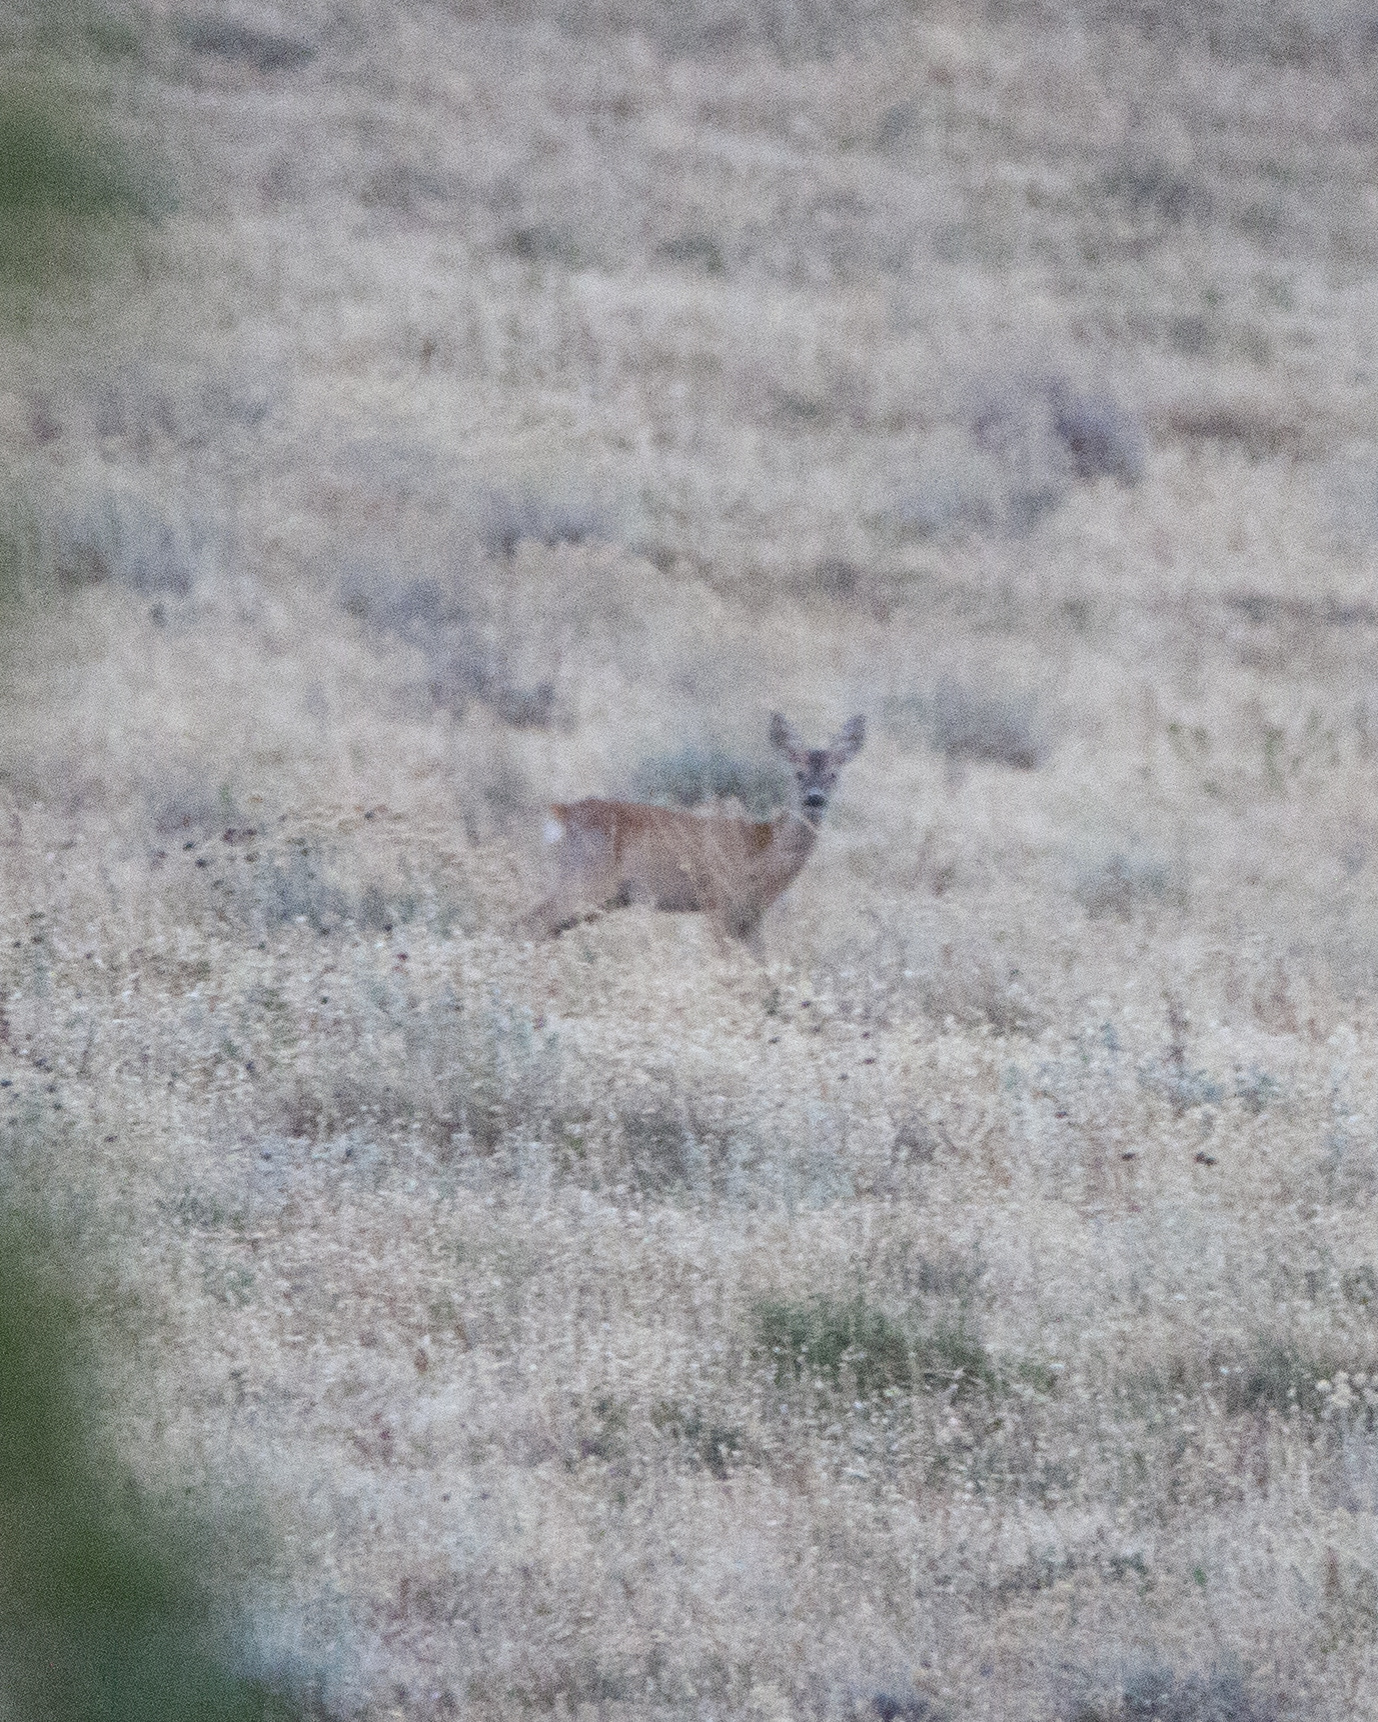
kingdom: Animalia
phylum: Chordata
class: Mammalia
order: Artiodactyla
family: Cervidae
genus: Capreolus
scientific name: Capreolus capreolus
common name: Western roe deer
